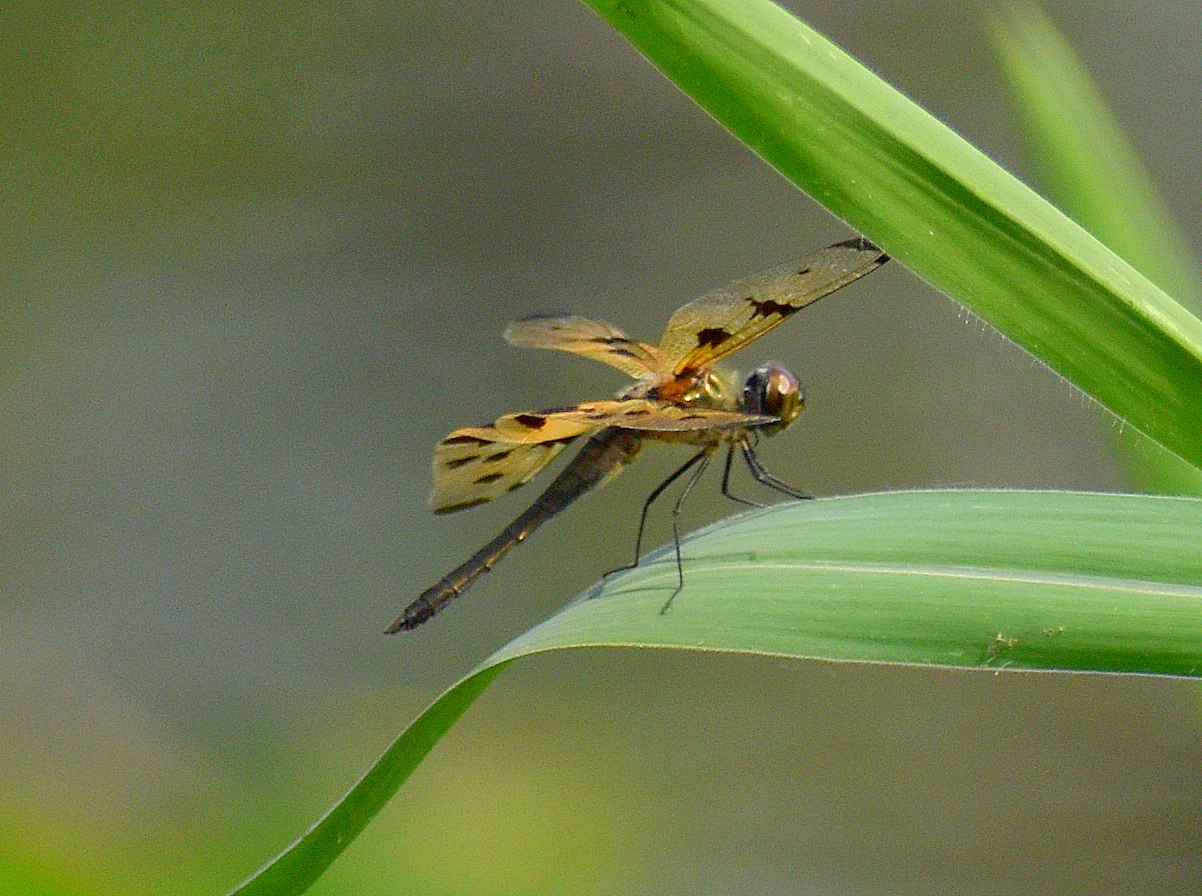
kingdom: Animalia
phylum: Arthropoda
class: Insecta
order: Odonata
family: Libellulidae
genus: Rhyothemis
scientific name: Rhyothemis variegata
